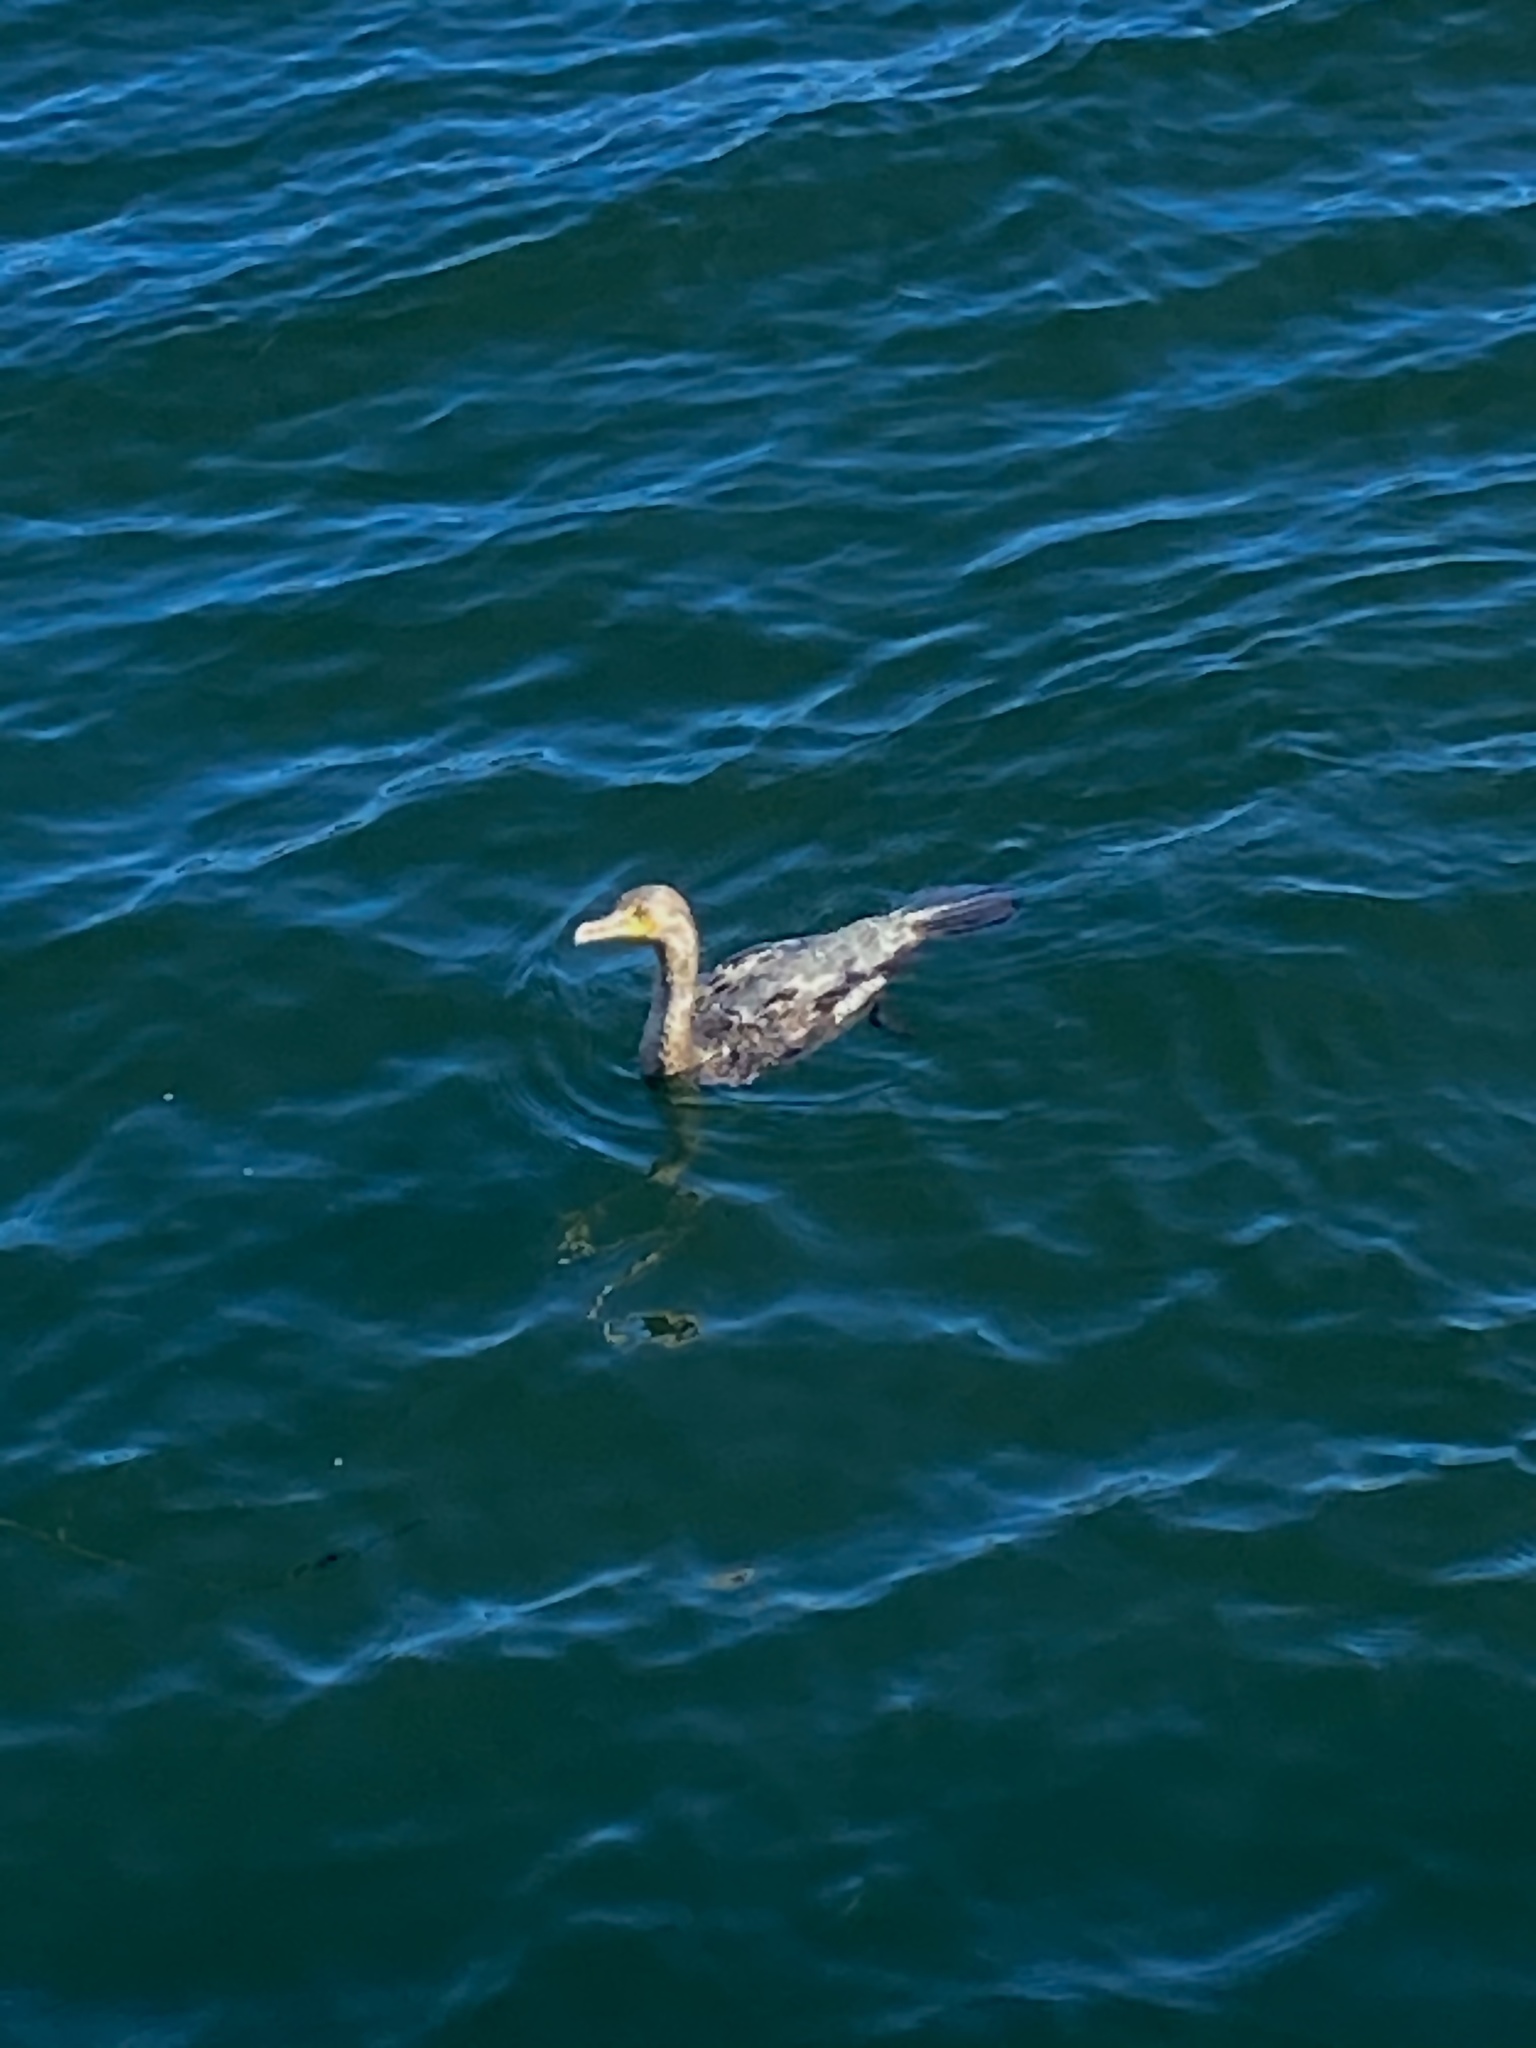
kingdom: Animalia
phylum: Chordata
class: Aves
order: Suliformes
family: Phalacrocoracidae
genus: Phalacrocorax
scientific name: Phalacrocorax auritus
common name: Double-crested cormorant
